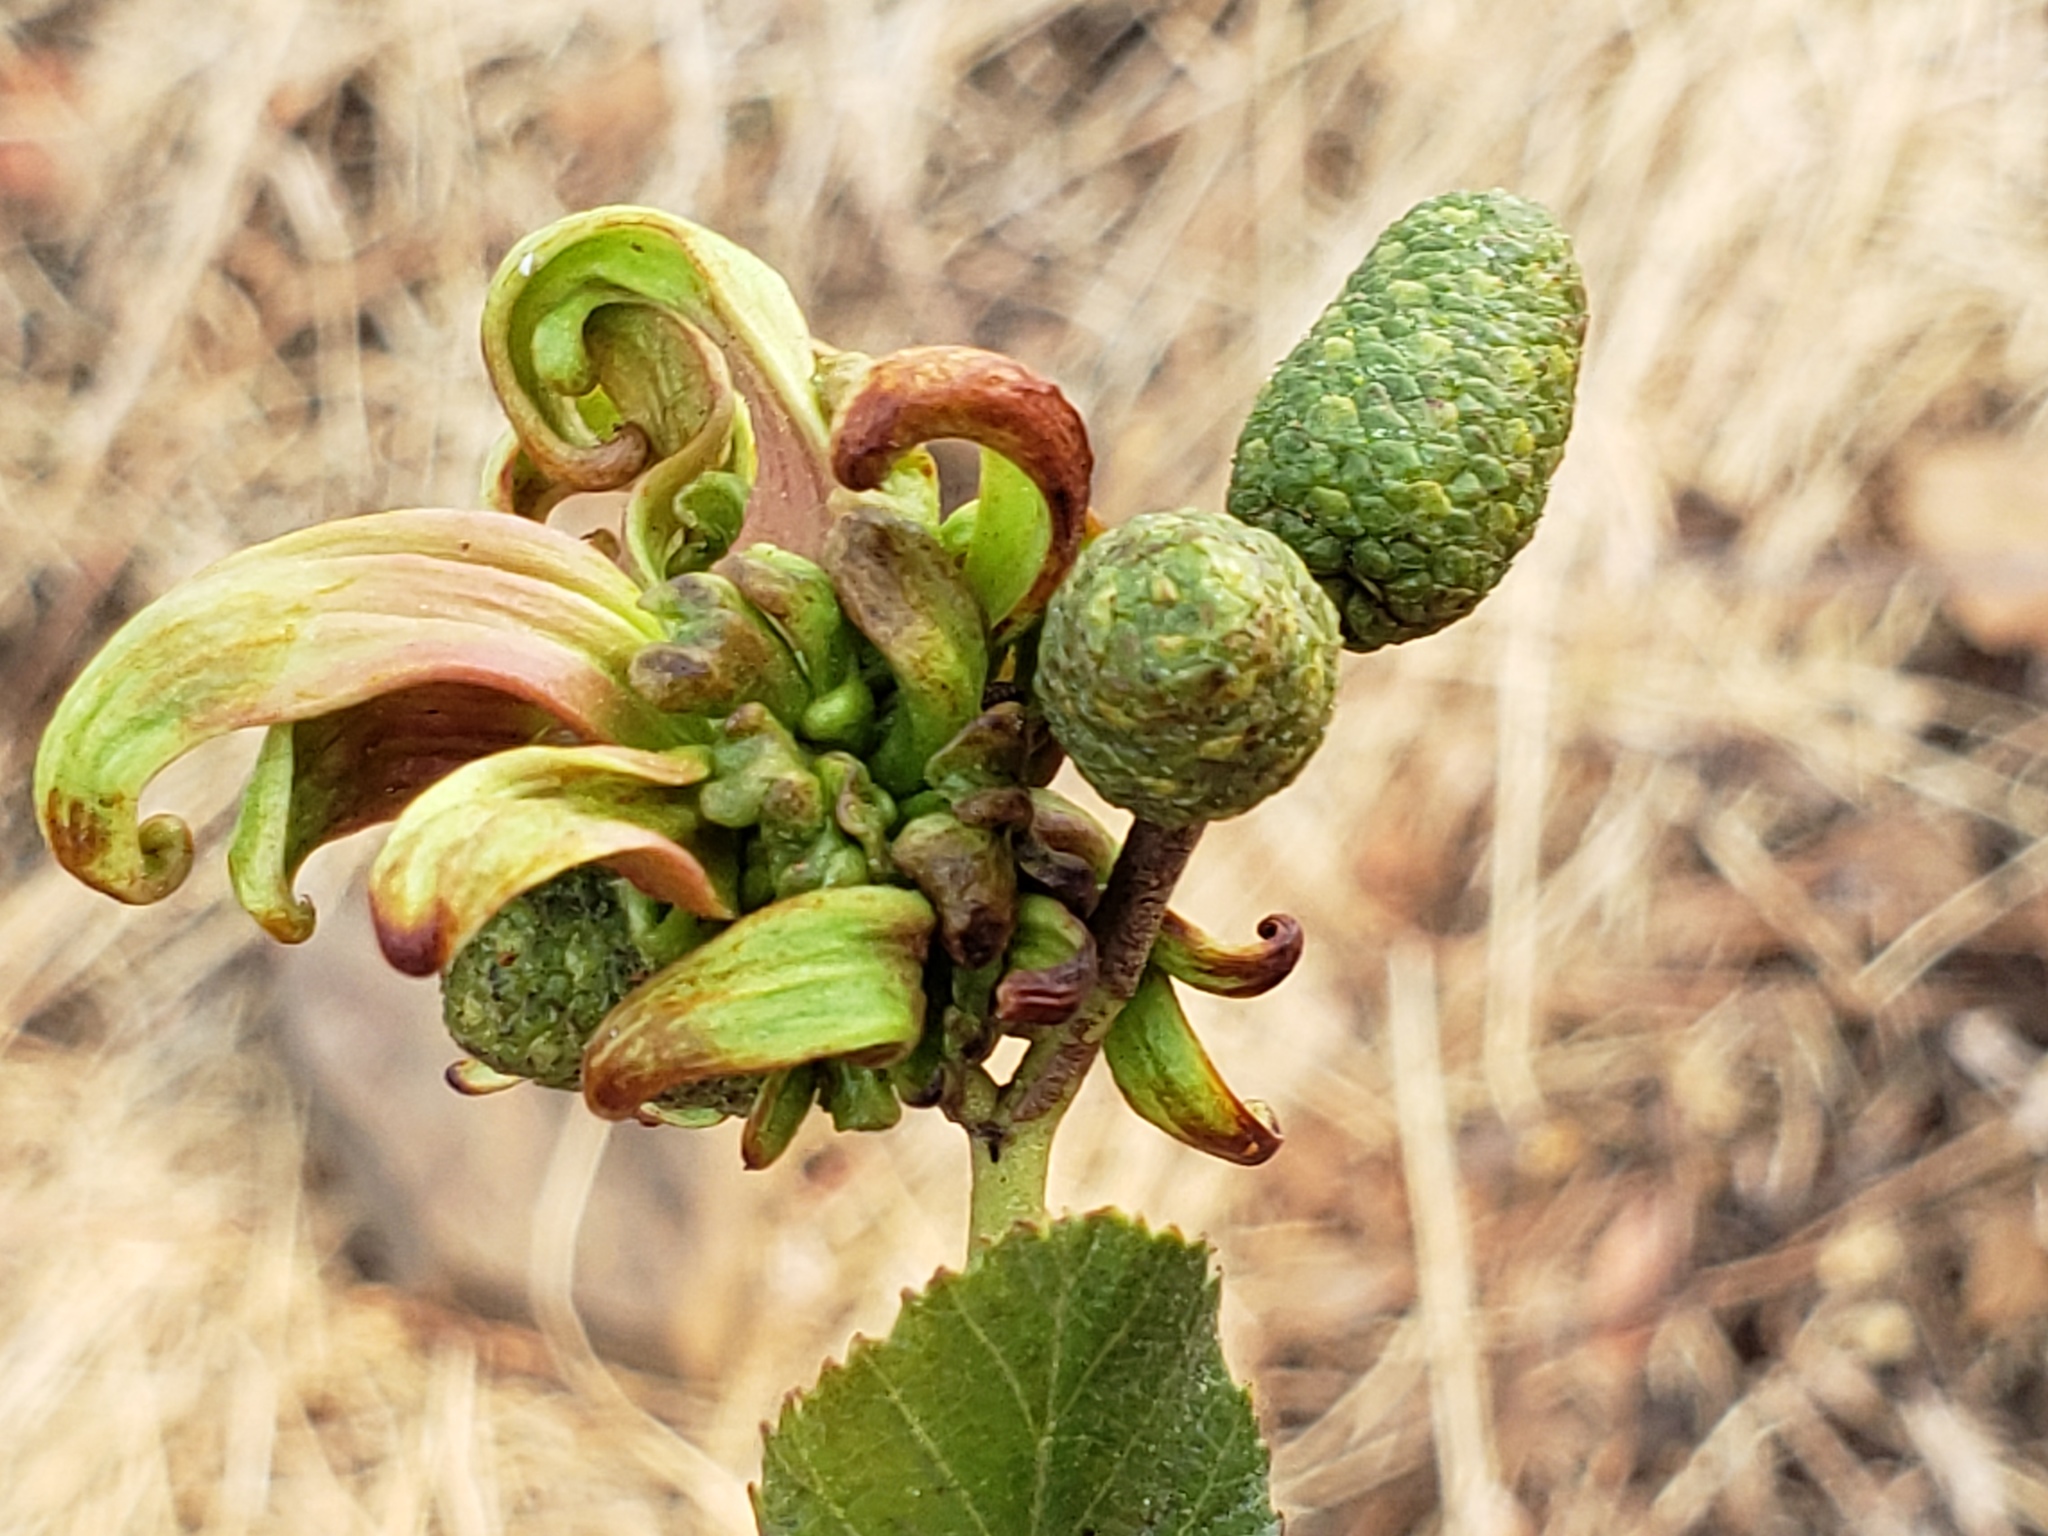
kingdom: Fungi
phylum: Ascomycota
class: Taphrinomycetes
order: Taphrinales
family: Taphrinaceae
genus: Taphrina
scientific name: Taphrina occidentalis
